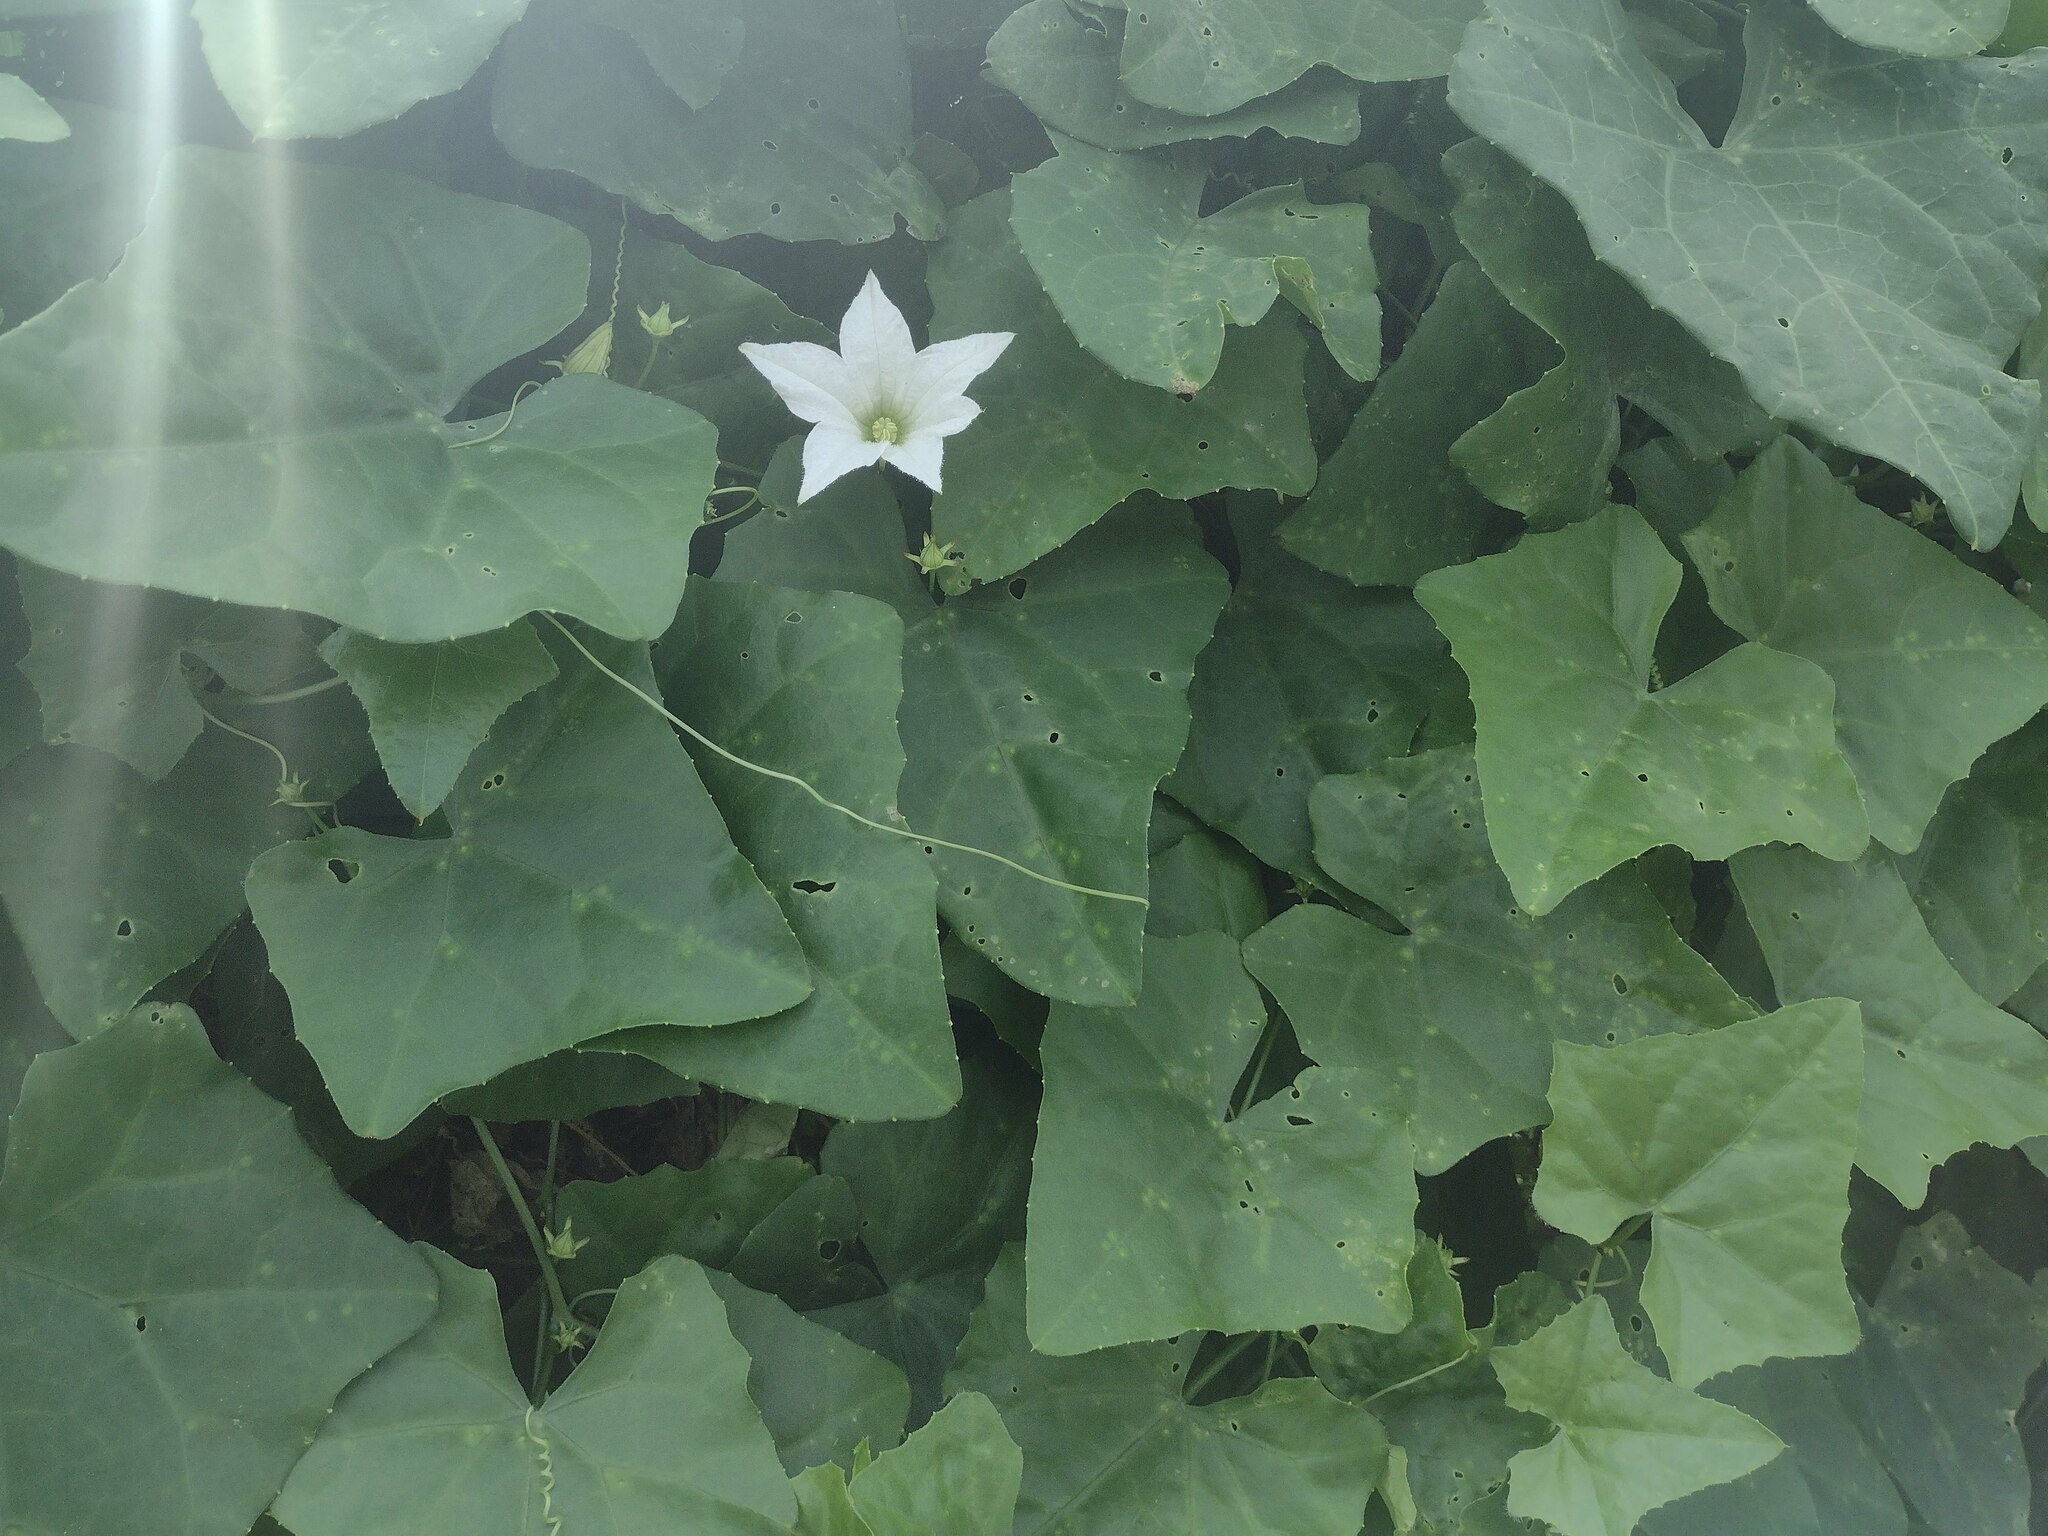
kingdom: Plantae
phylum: Tracheophyta
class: Magnoliopsida
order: Cucurbitales
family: Cucurbitaceae
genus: Coccinia
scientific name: Coccinia grandis
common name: Ivy gourd
